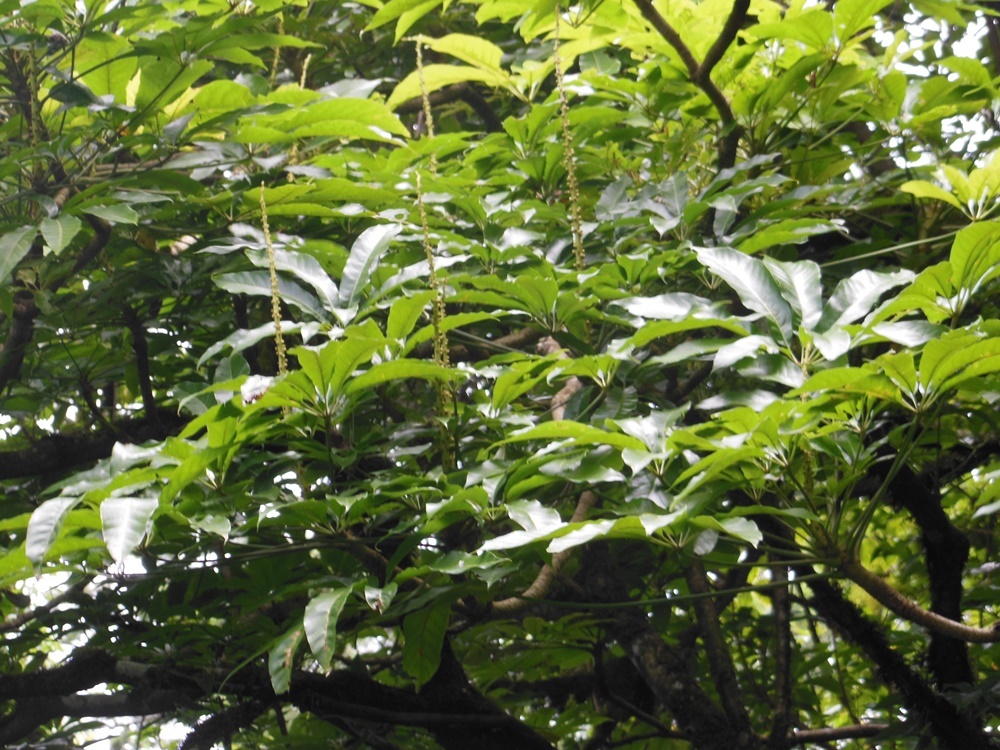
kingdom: Plantae
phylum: Tracheophyta
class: Magnoliopsida
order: Apiales
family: Araliaceae
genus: Oreopanax
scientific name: Oreopanax xalapensis
